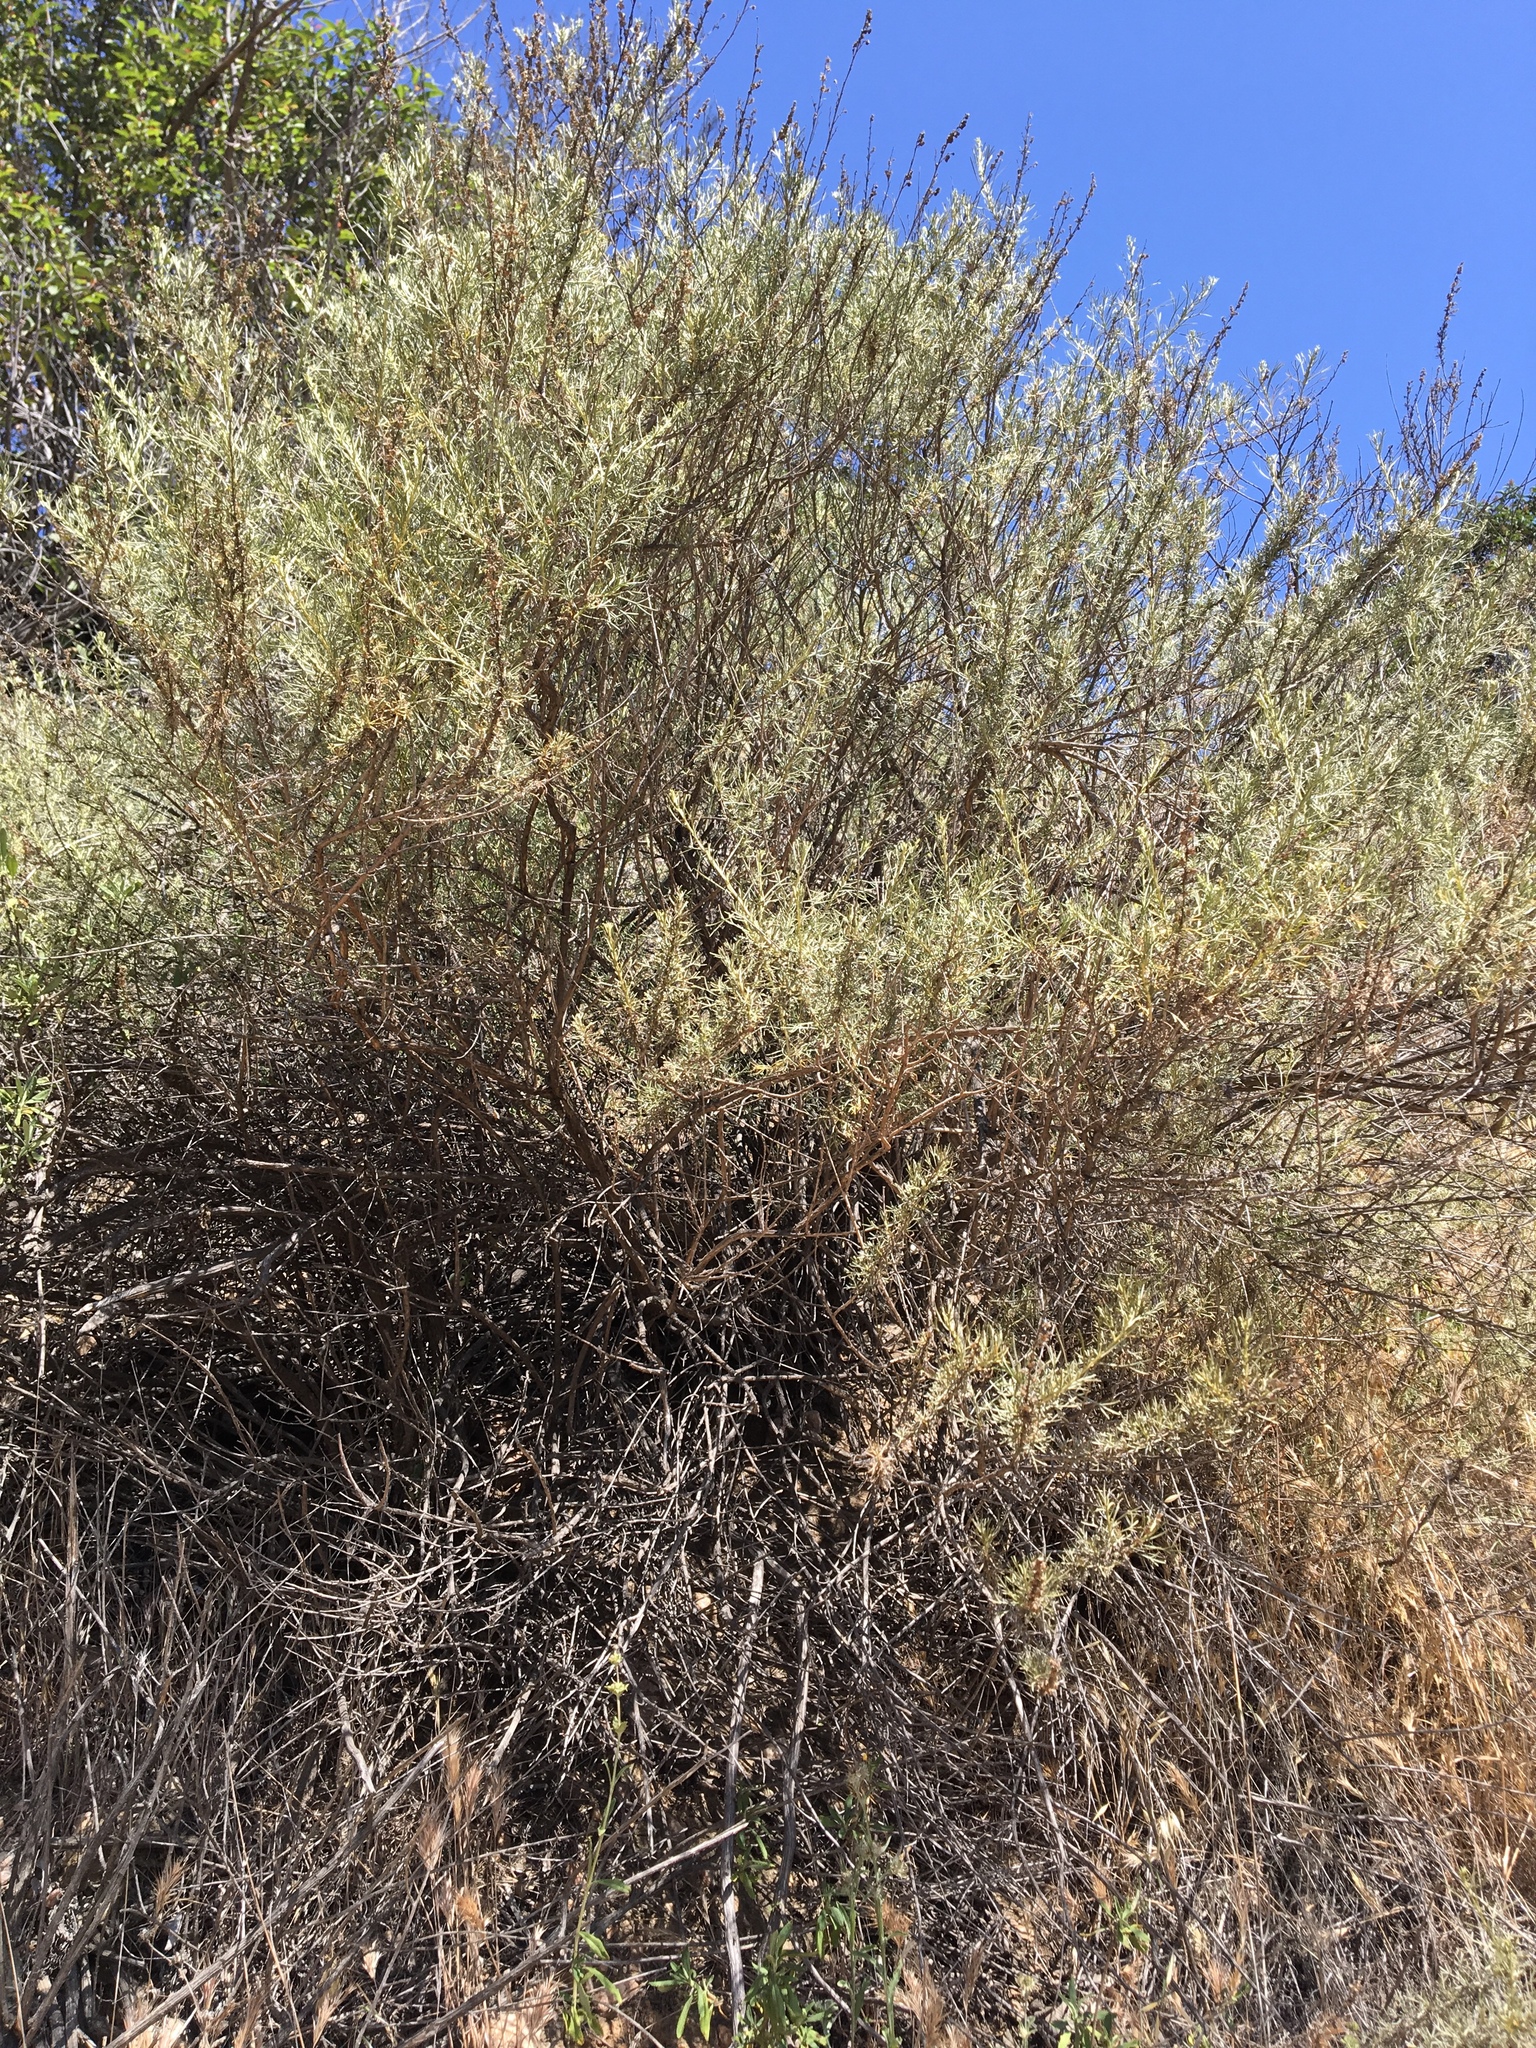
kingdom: Plantae
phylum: Tracheophyta
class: Magnoliopsida
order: Asterales
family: Asteraceae
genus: Artemisia
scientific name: Artemisia californica
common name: California sagebrush
